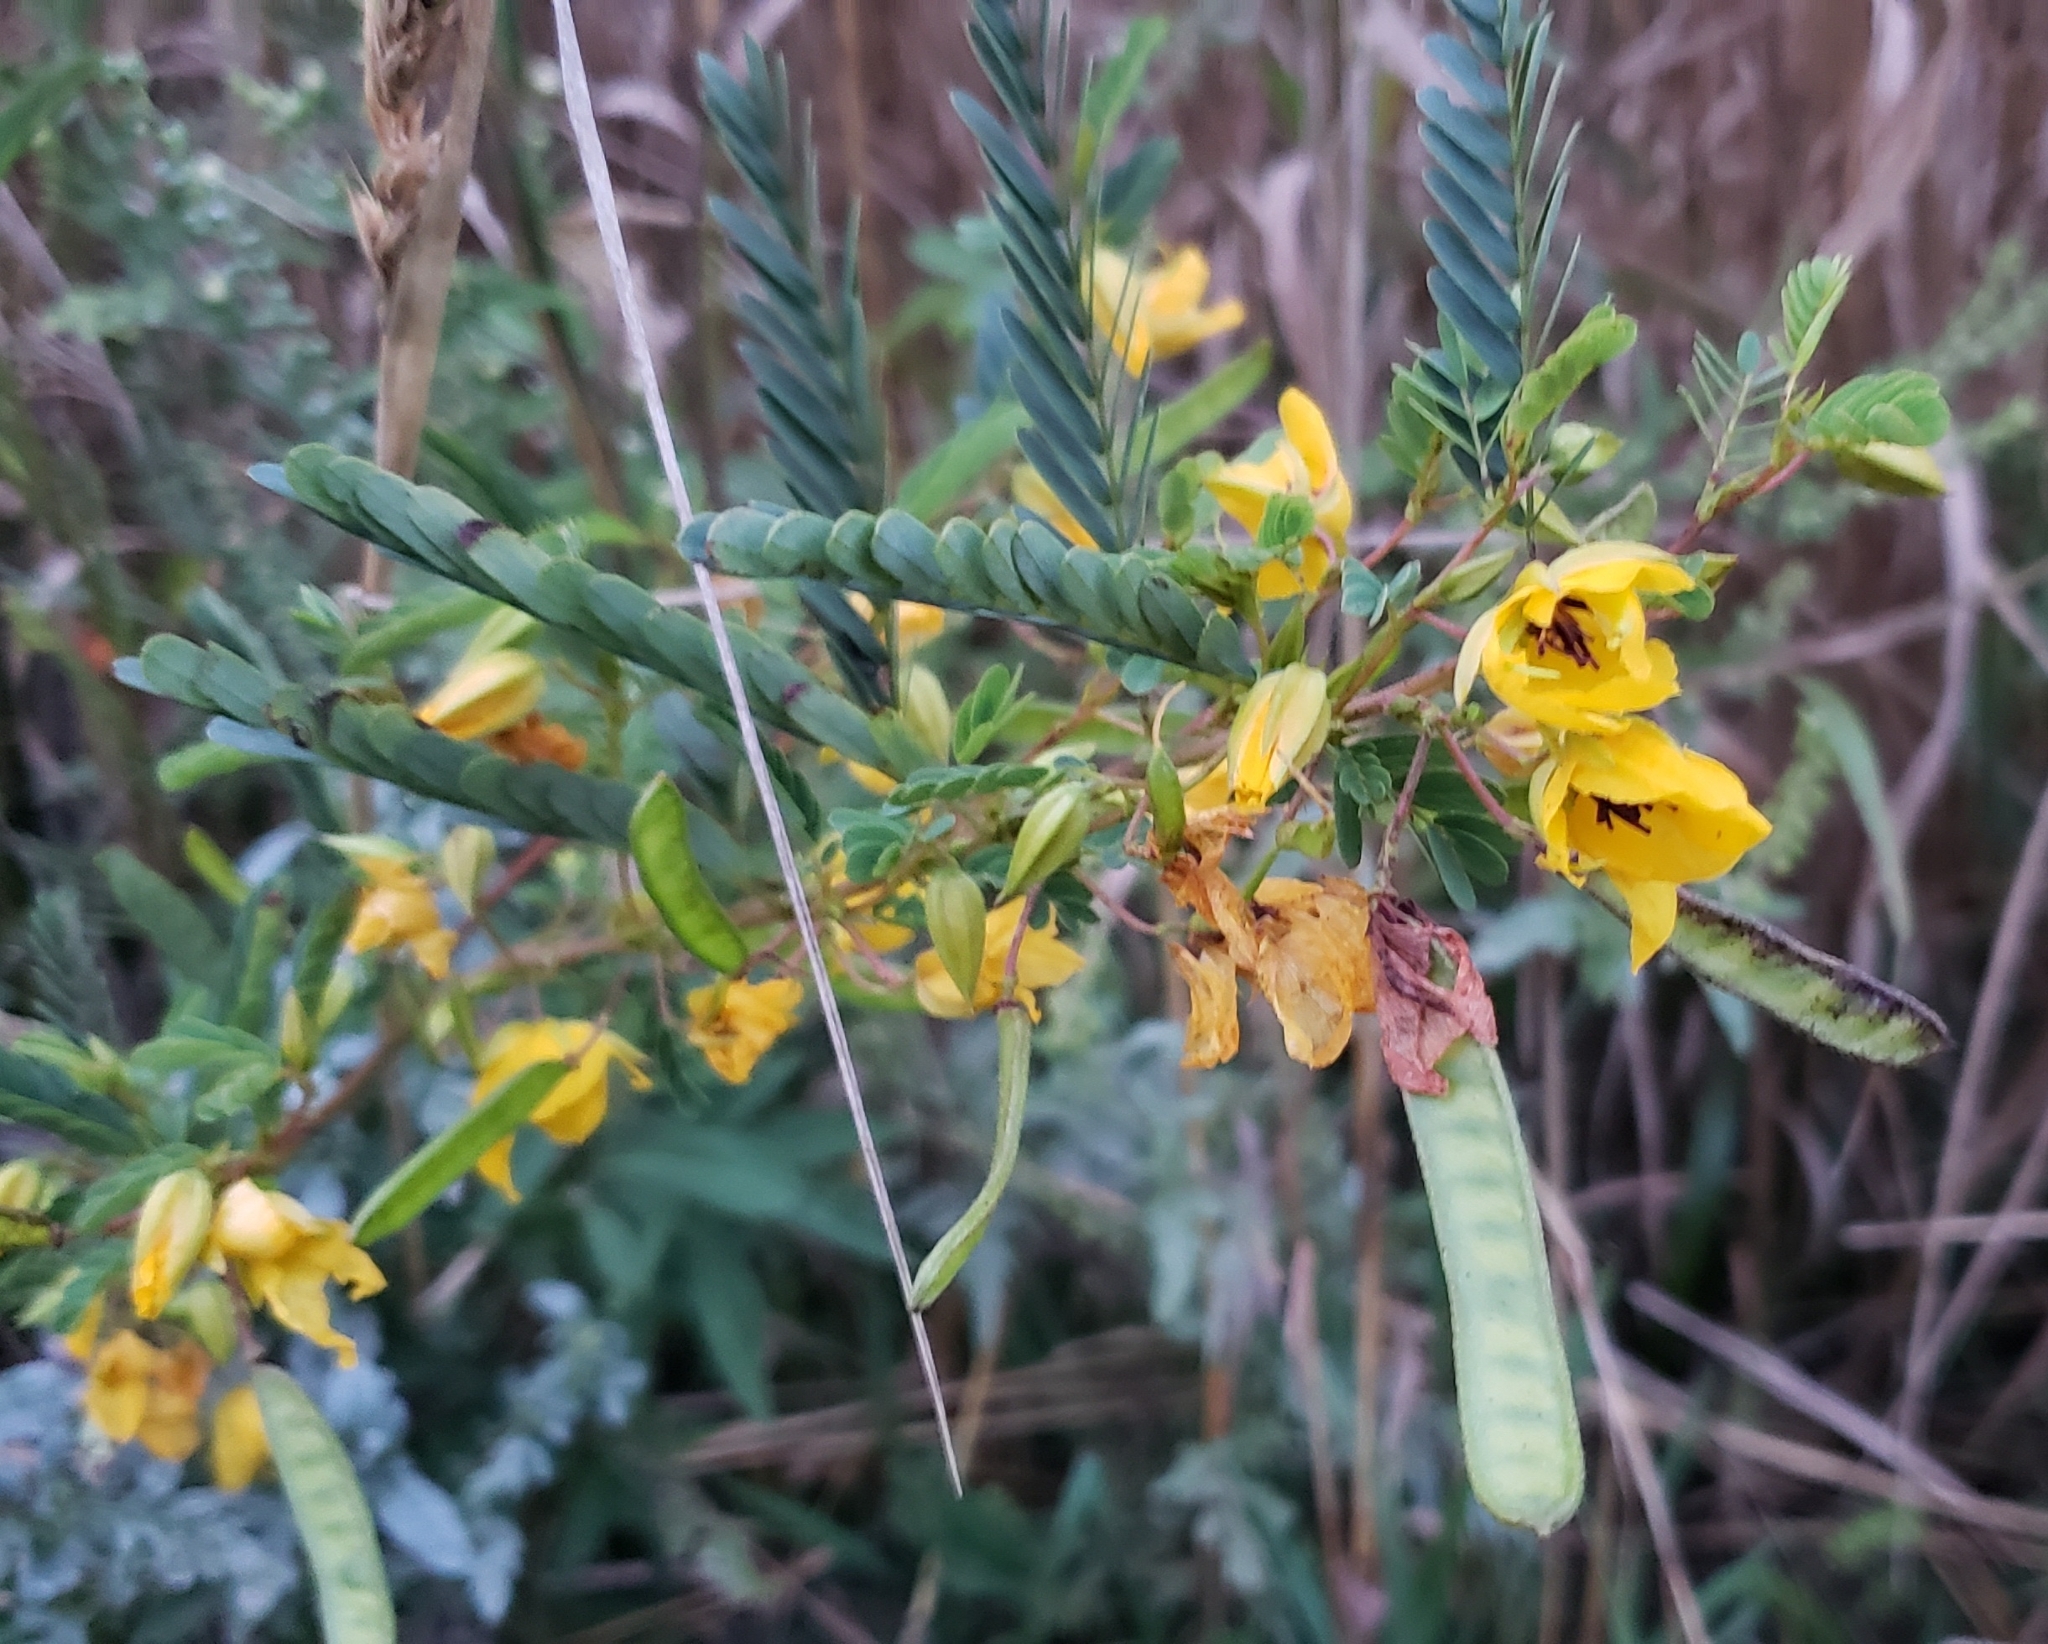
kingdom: Plantae
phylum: Tracheophyta
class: Magnoliopsida
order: Fabales
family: Fabaceae
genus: Chamaecrista
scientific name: Chamaecrista fasciculata
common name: Golden cassia
